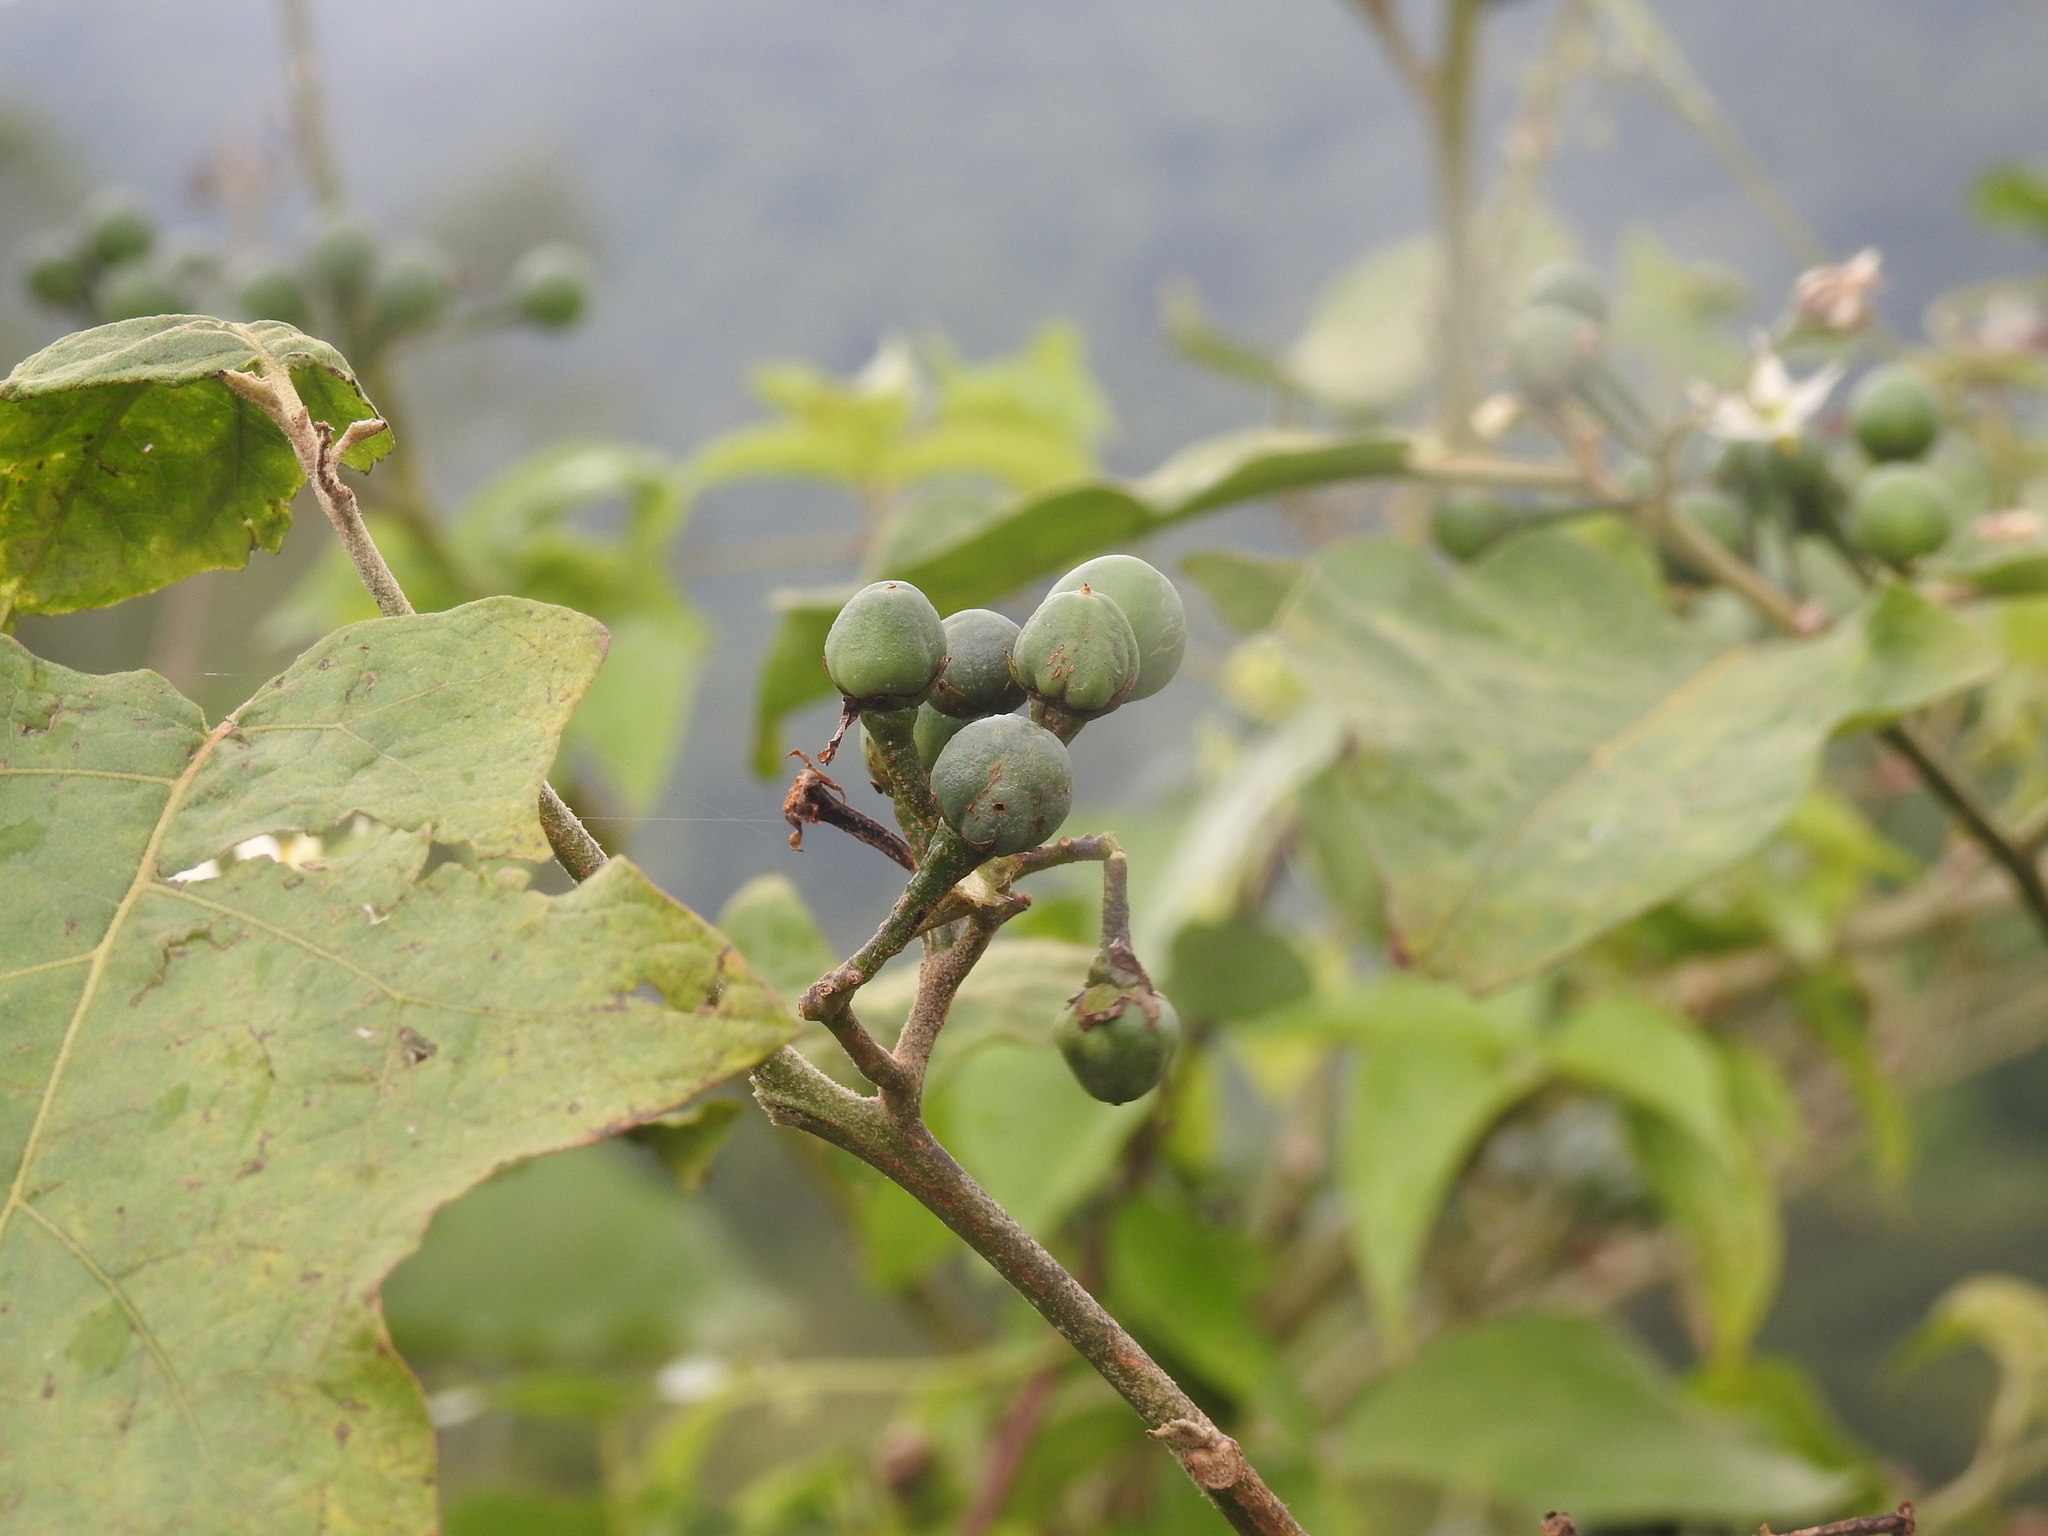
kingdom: Plantae
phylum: Tracheophyta
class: Magnoliopsida
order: Solanales
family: Solanaceae
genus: Solanum
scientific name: Solanum torvum
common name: Turkey berry
